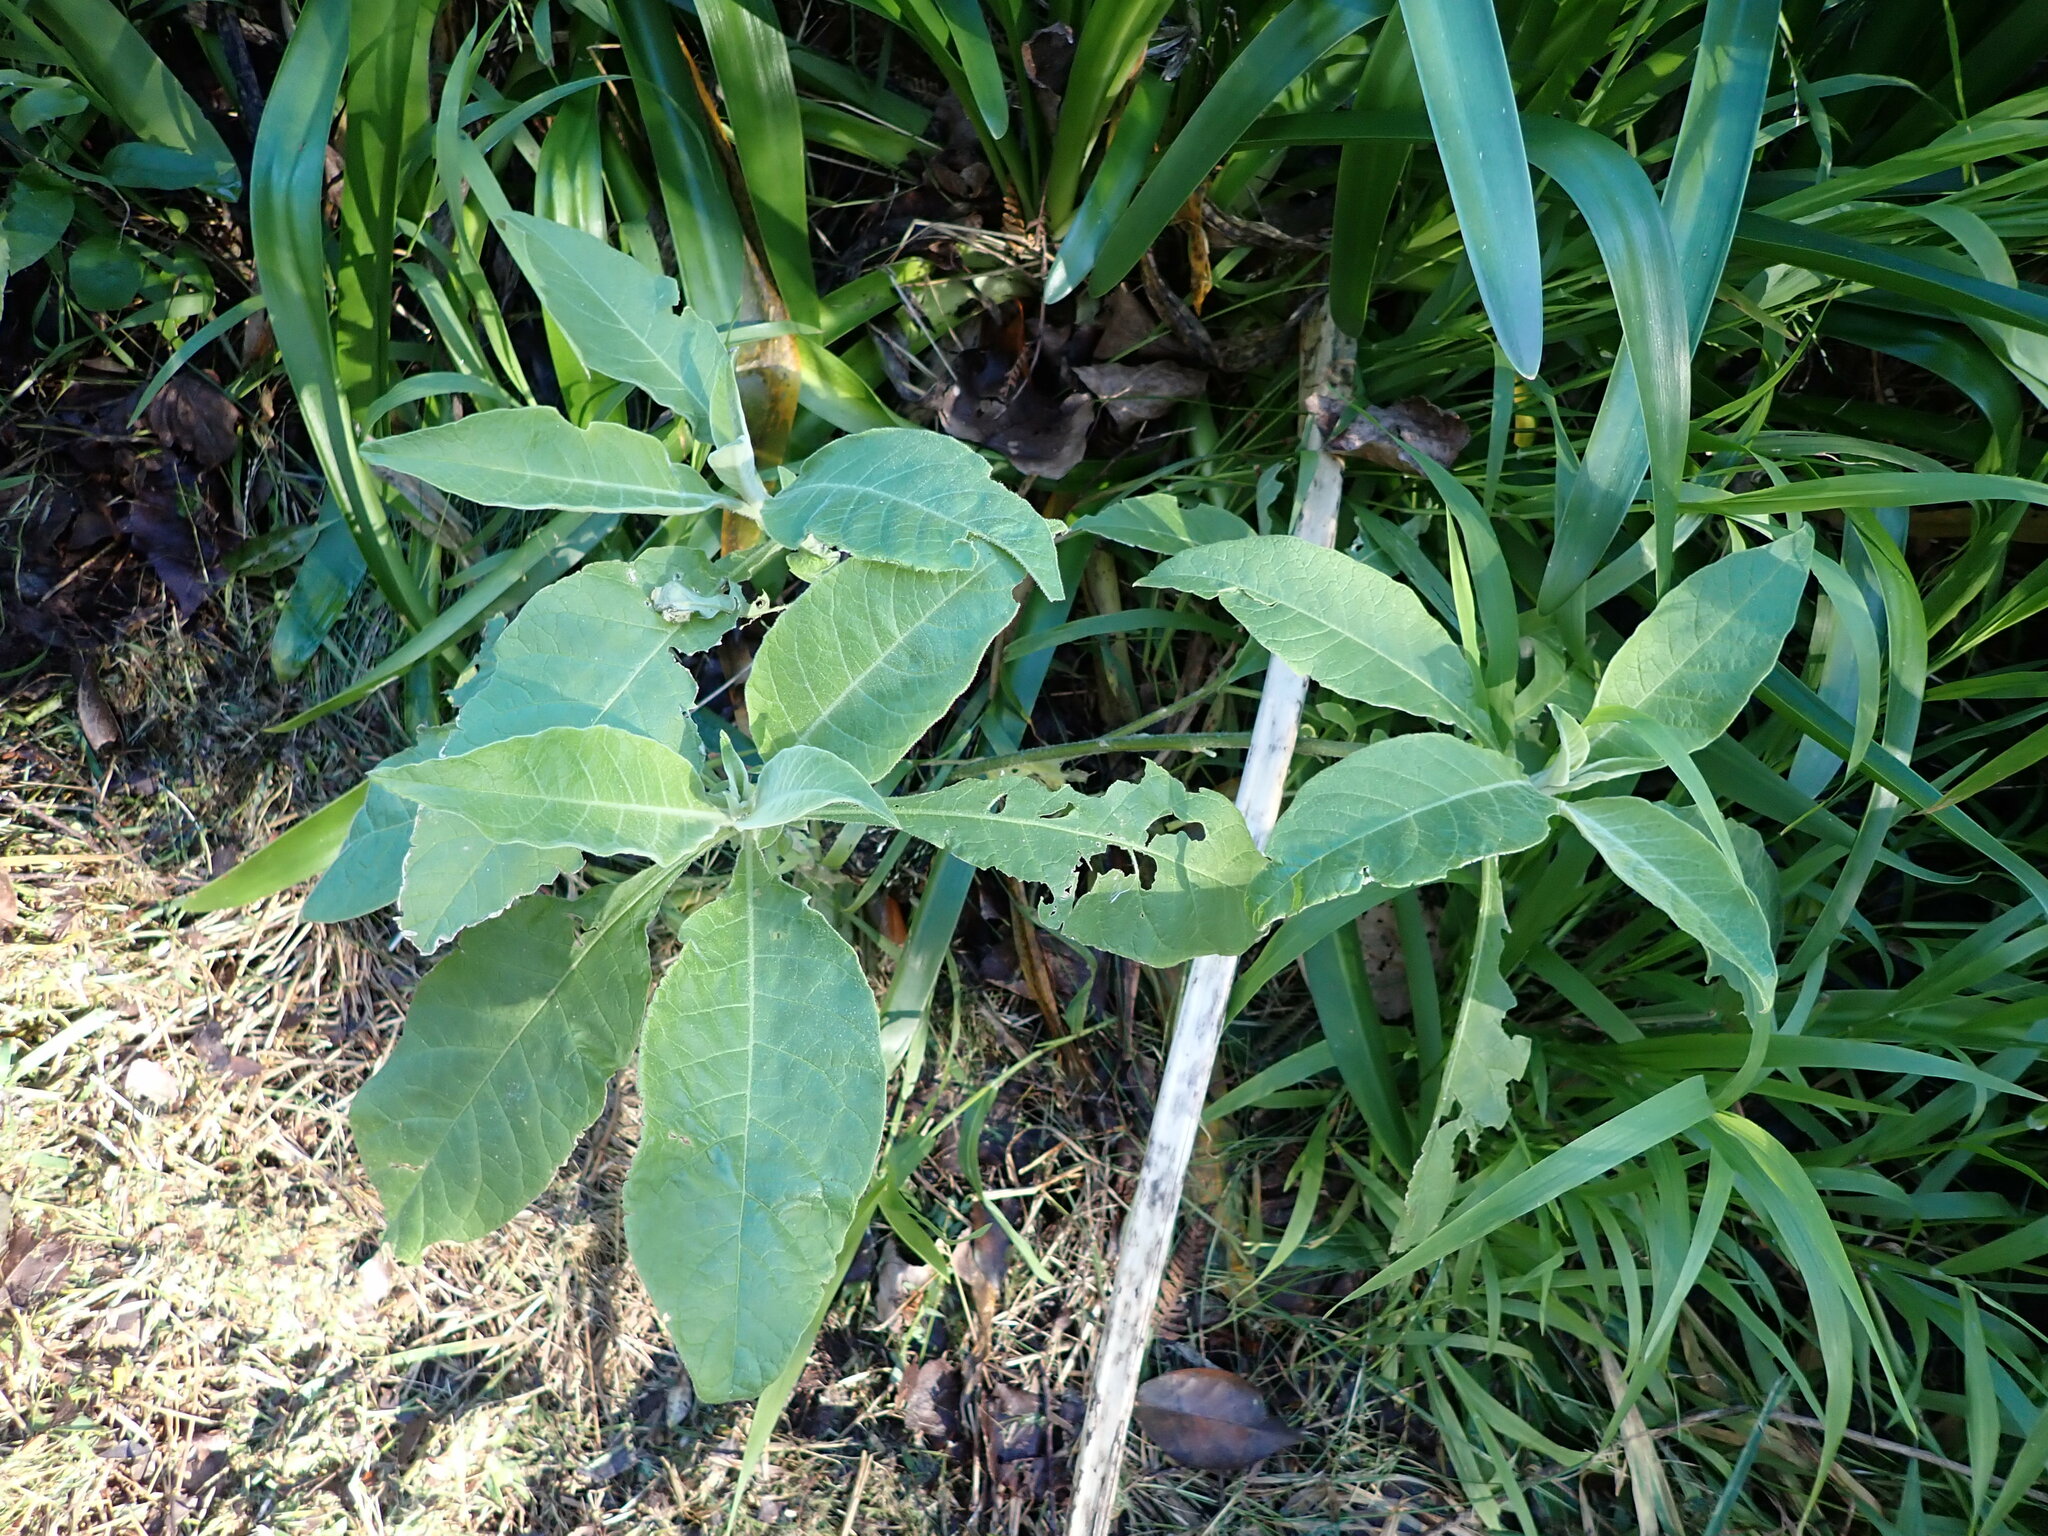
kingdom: Plantae
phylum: Tracheophyta
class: Magnoliopsida
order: Solanales
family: Solanaceae
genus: Solanum
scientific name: Solanum mauritianum
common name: Earleaf nightshade
